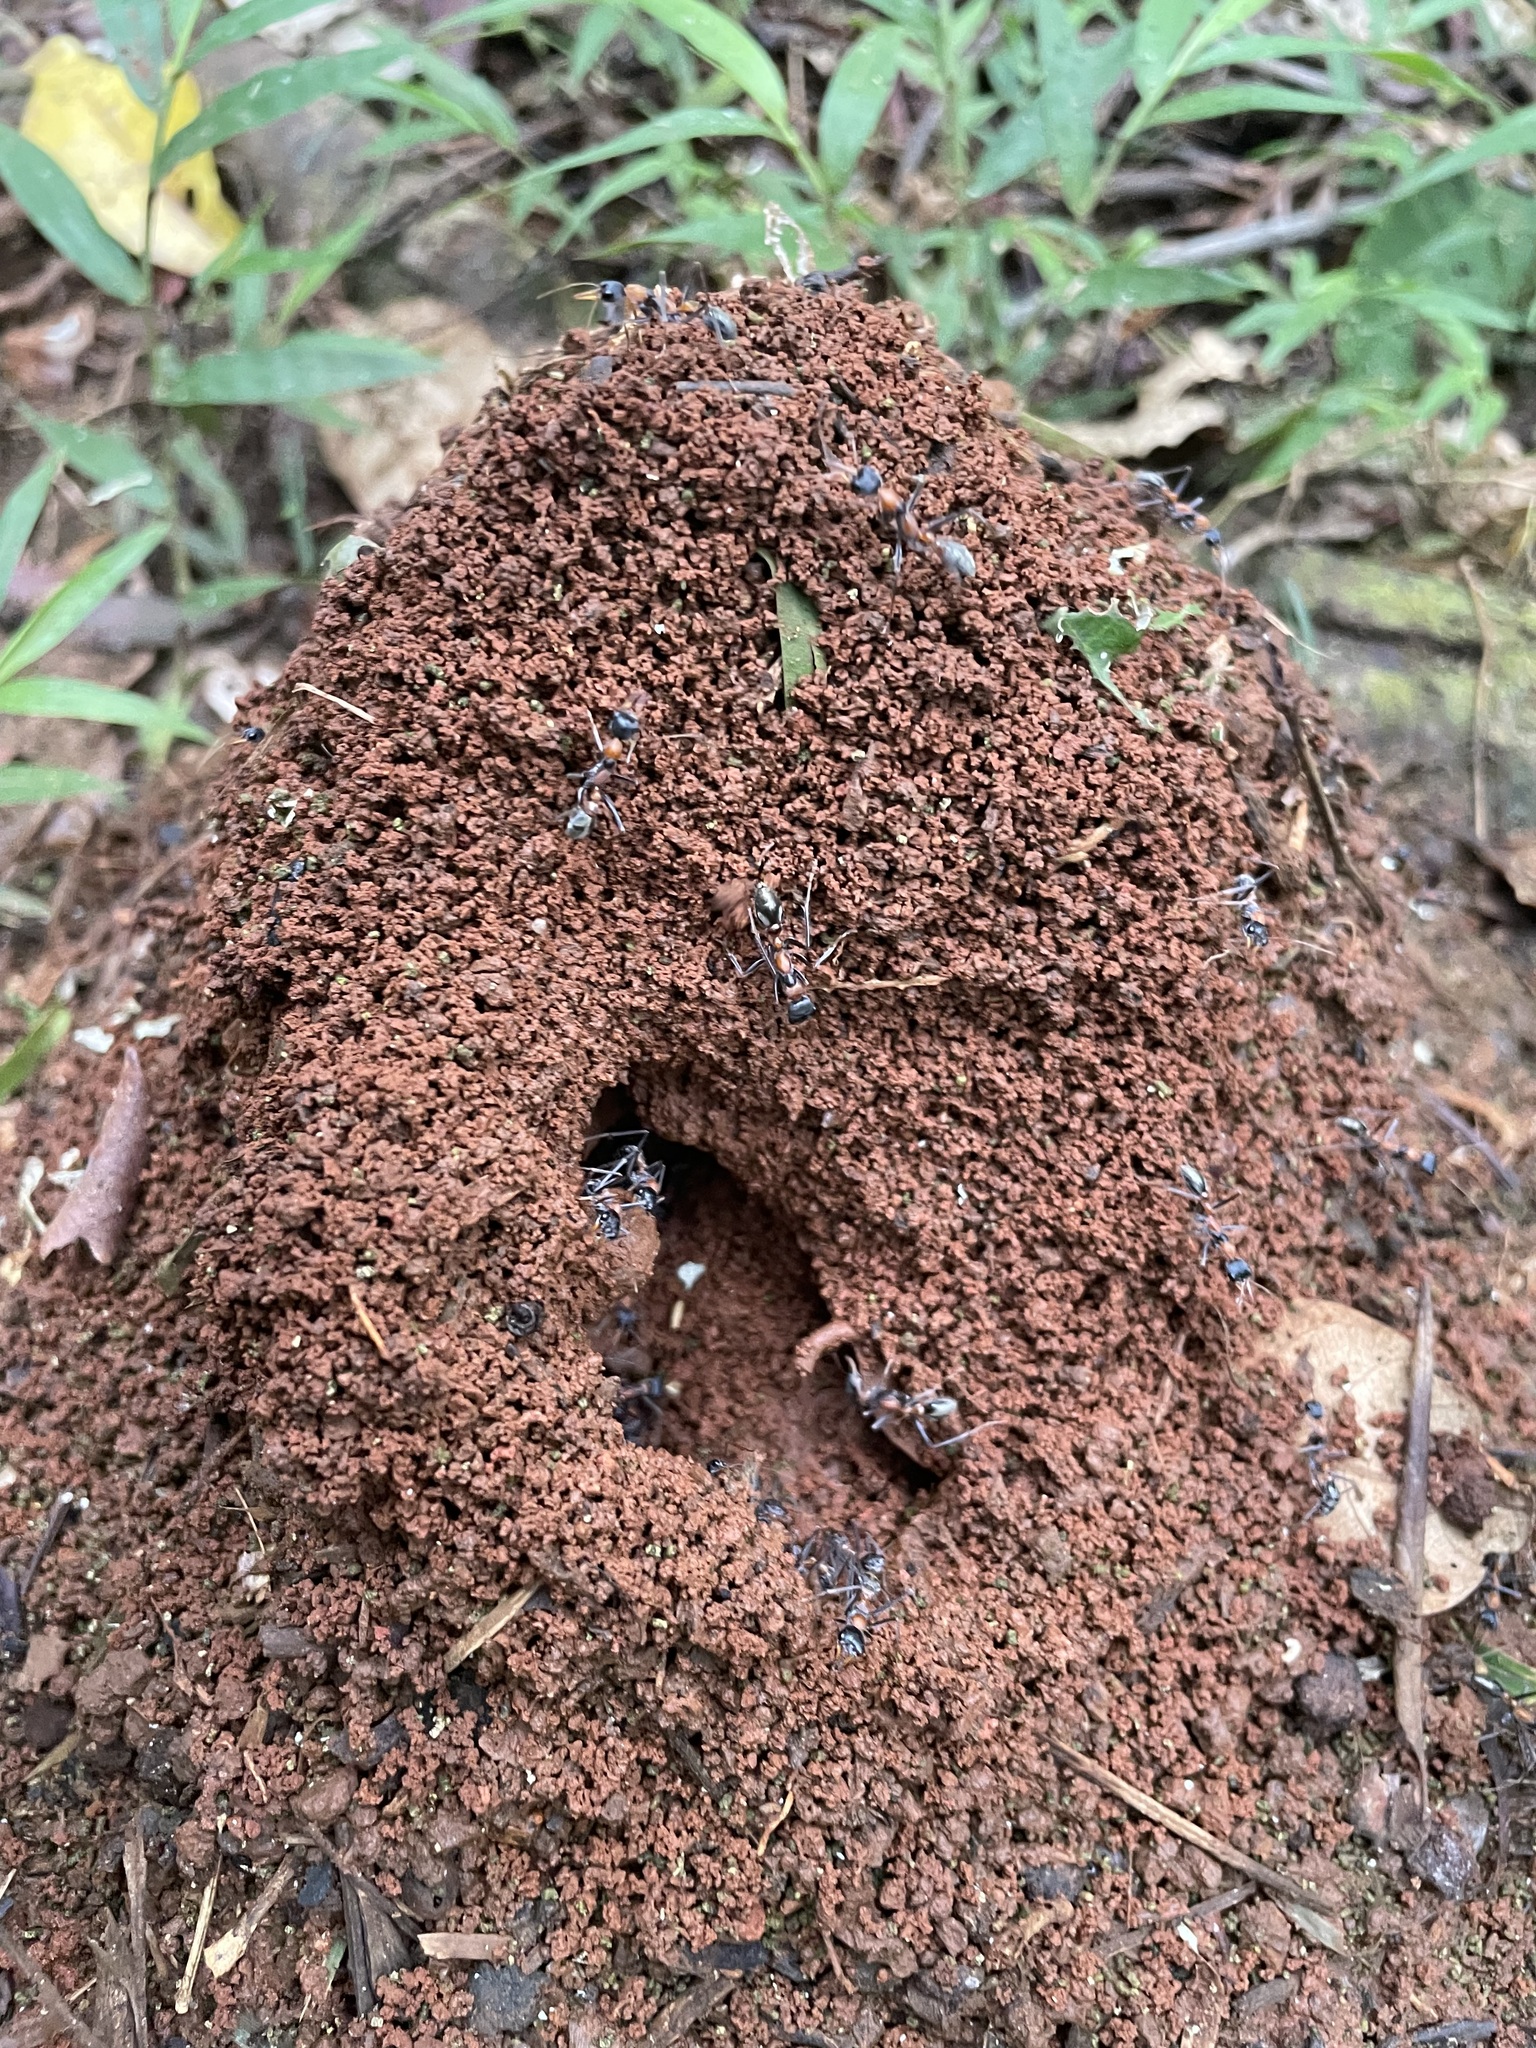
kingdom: Animalia
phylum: Arthropoda
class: Insecta
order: Hymenoptera
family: Formicidae
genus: Myrmecia
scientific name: Myrmecia nigrocincta
